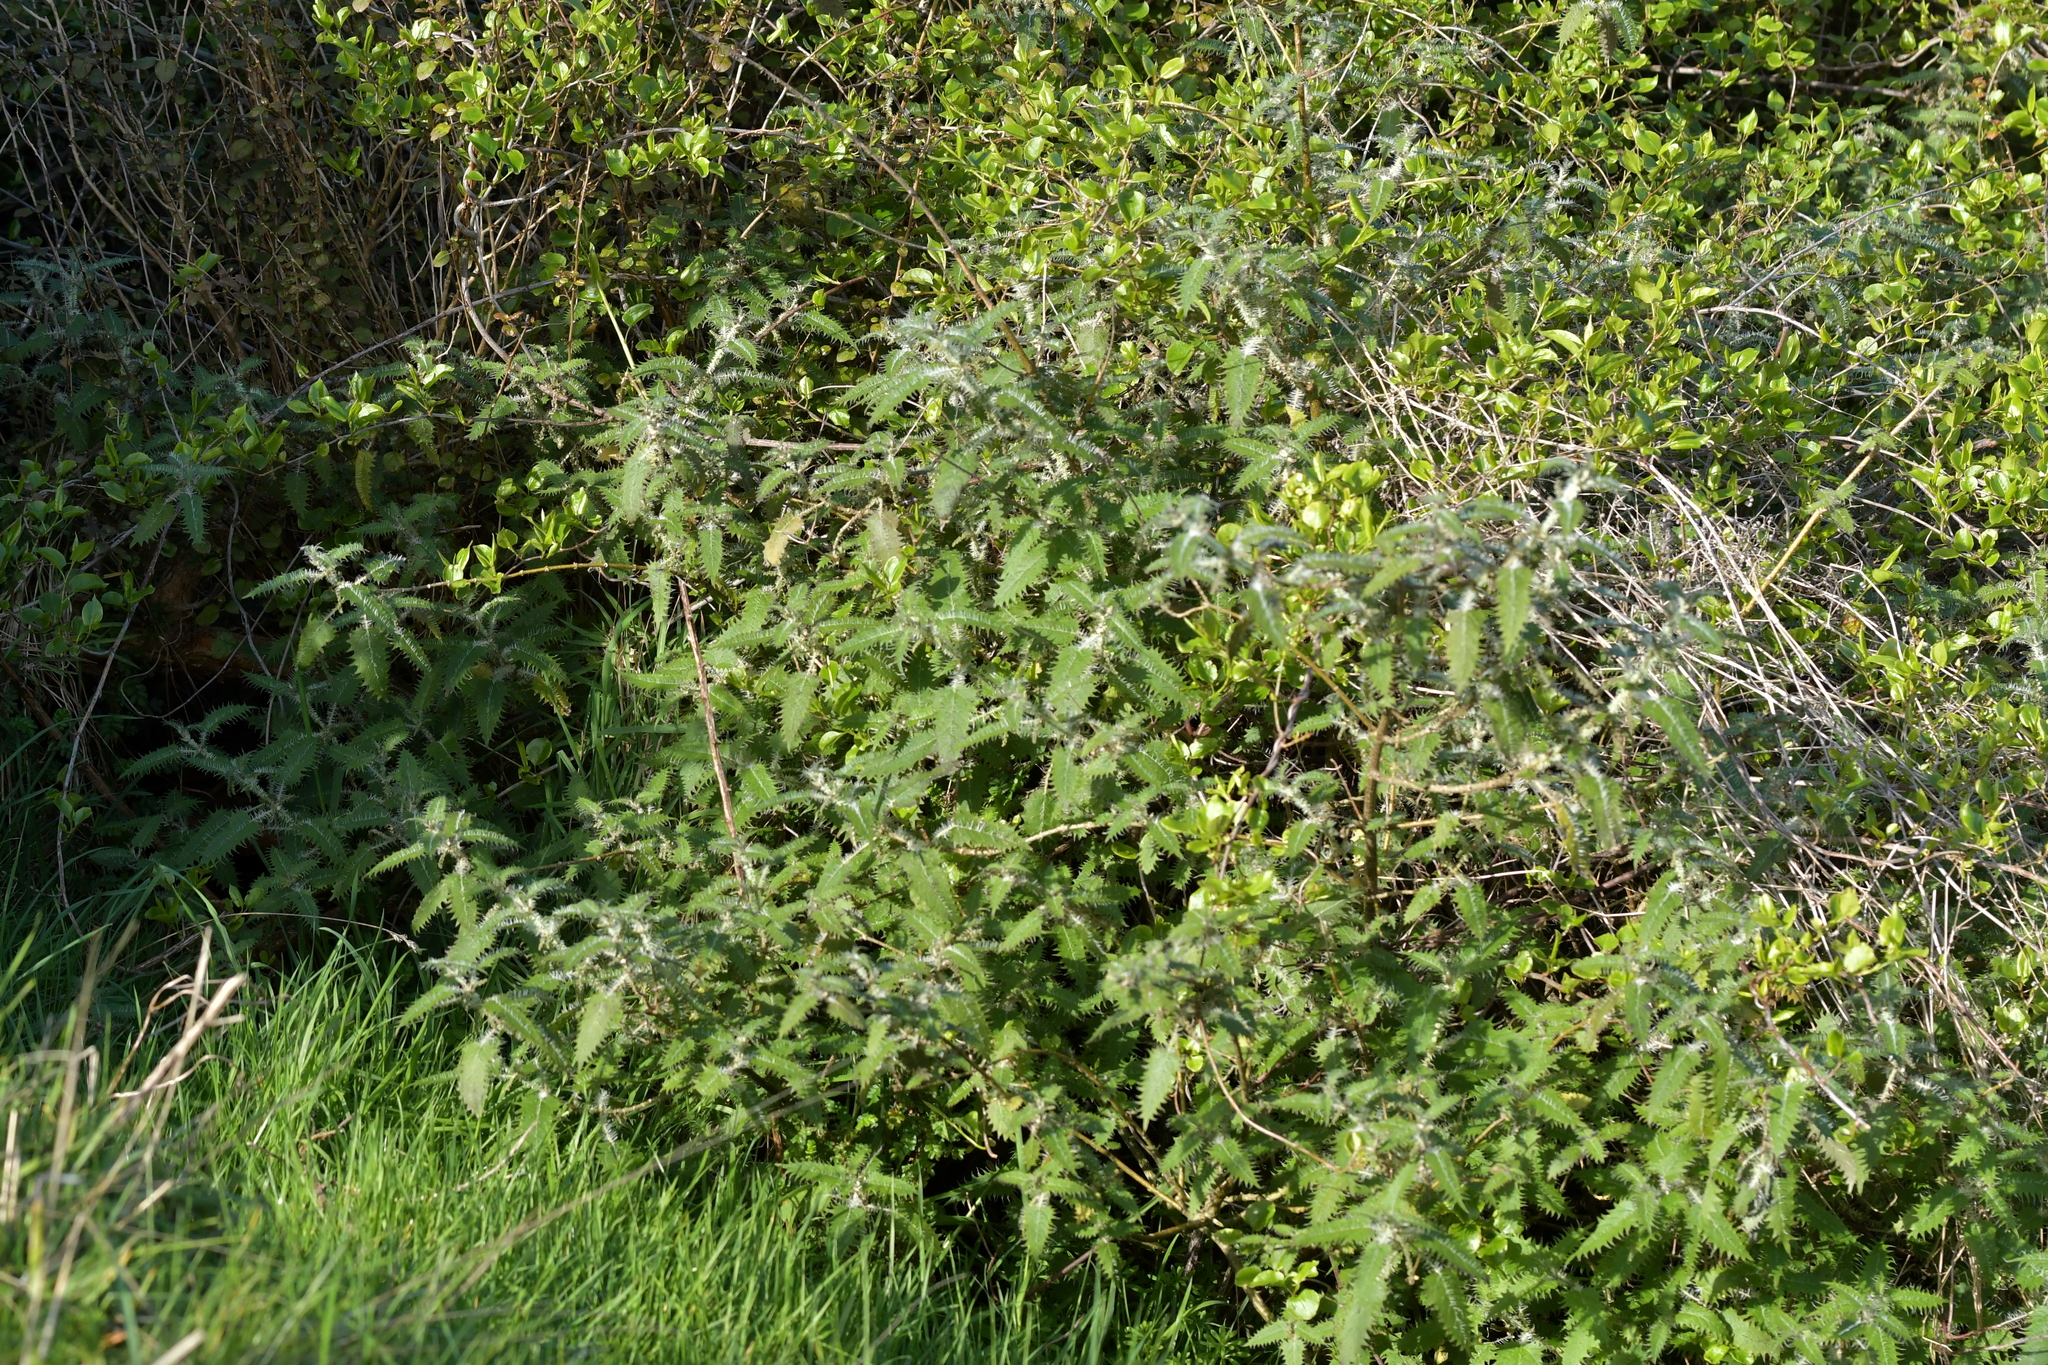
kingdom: Plantae
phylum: Tracheophyta
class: Magnoliopsida
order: Rosales
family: Urticaceae
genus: Urtica
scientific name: Urtica ferox
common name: Tree nettle
